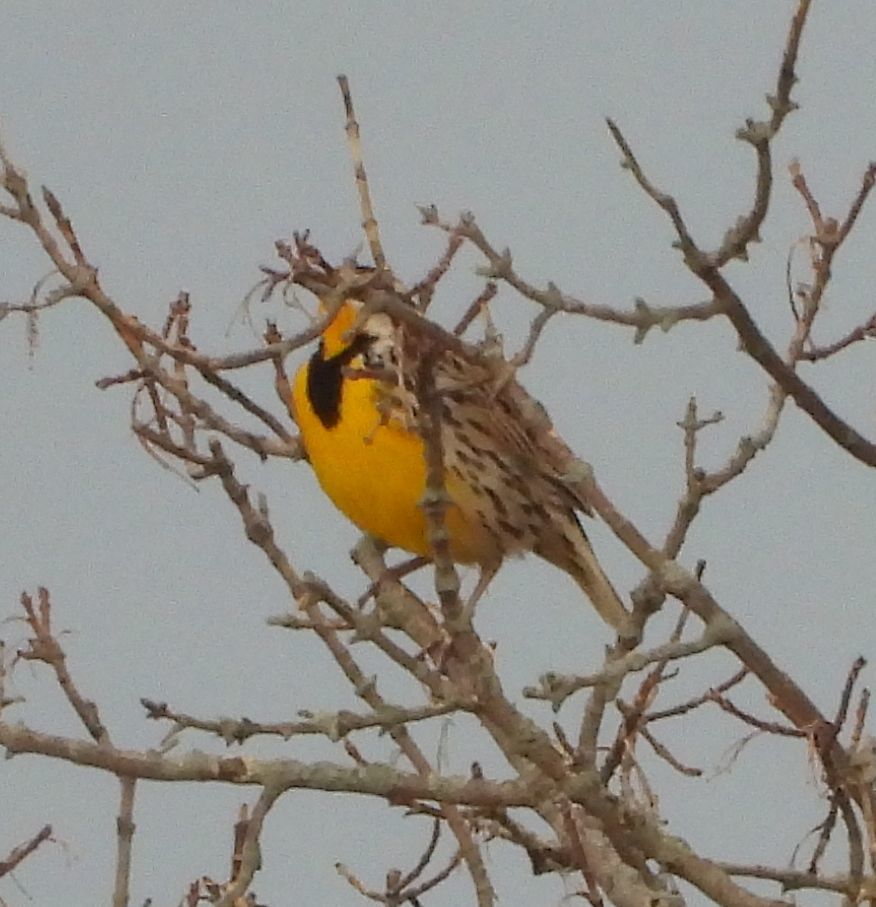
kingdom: Animalia
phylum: Chordata
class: Aves
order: Passeriformes
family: Icteridae
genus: Sturnella
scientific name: Sturnella magna
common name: Eastern meadowlark
